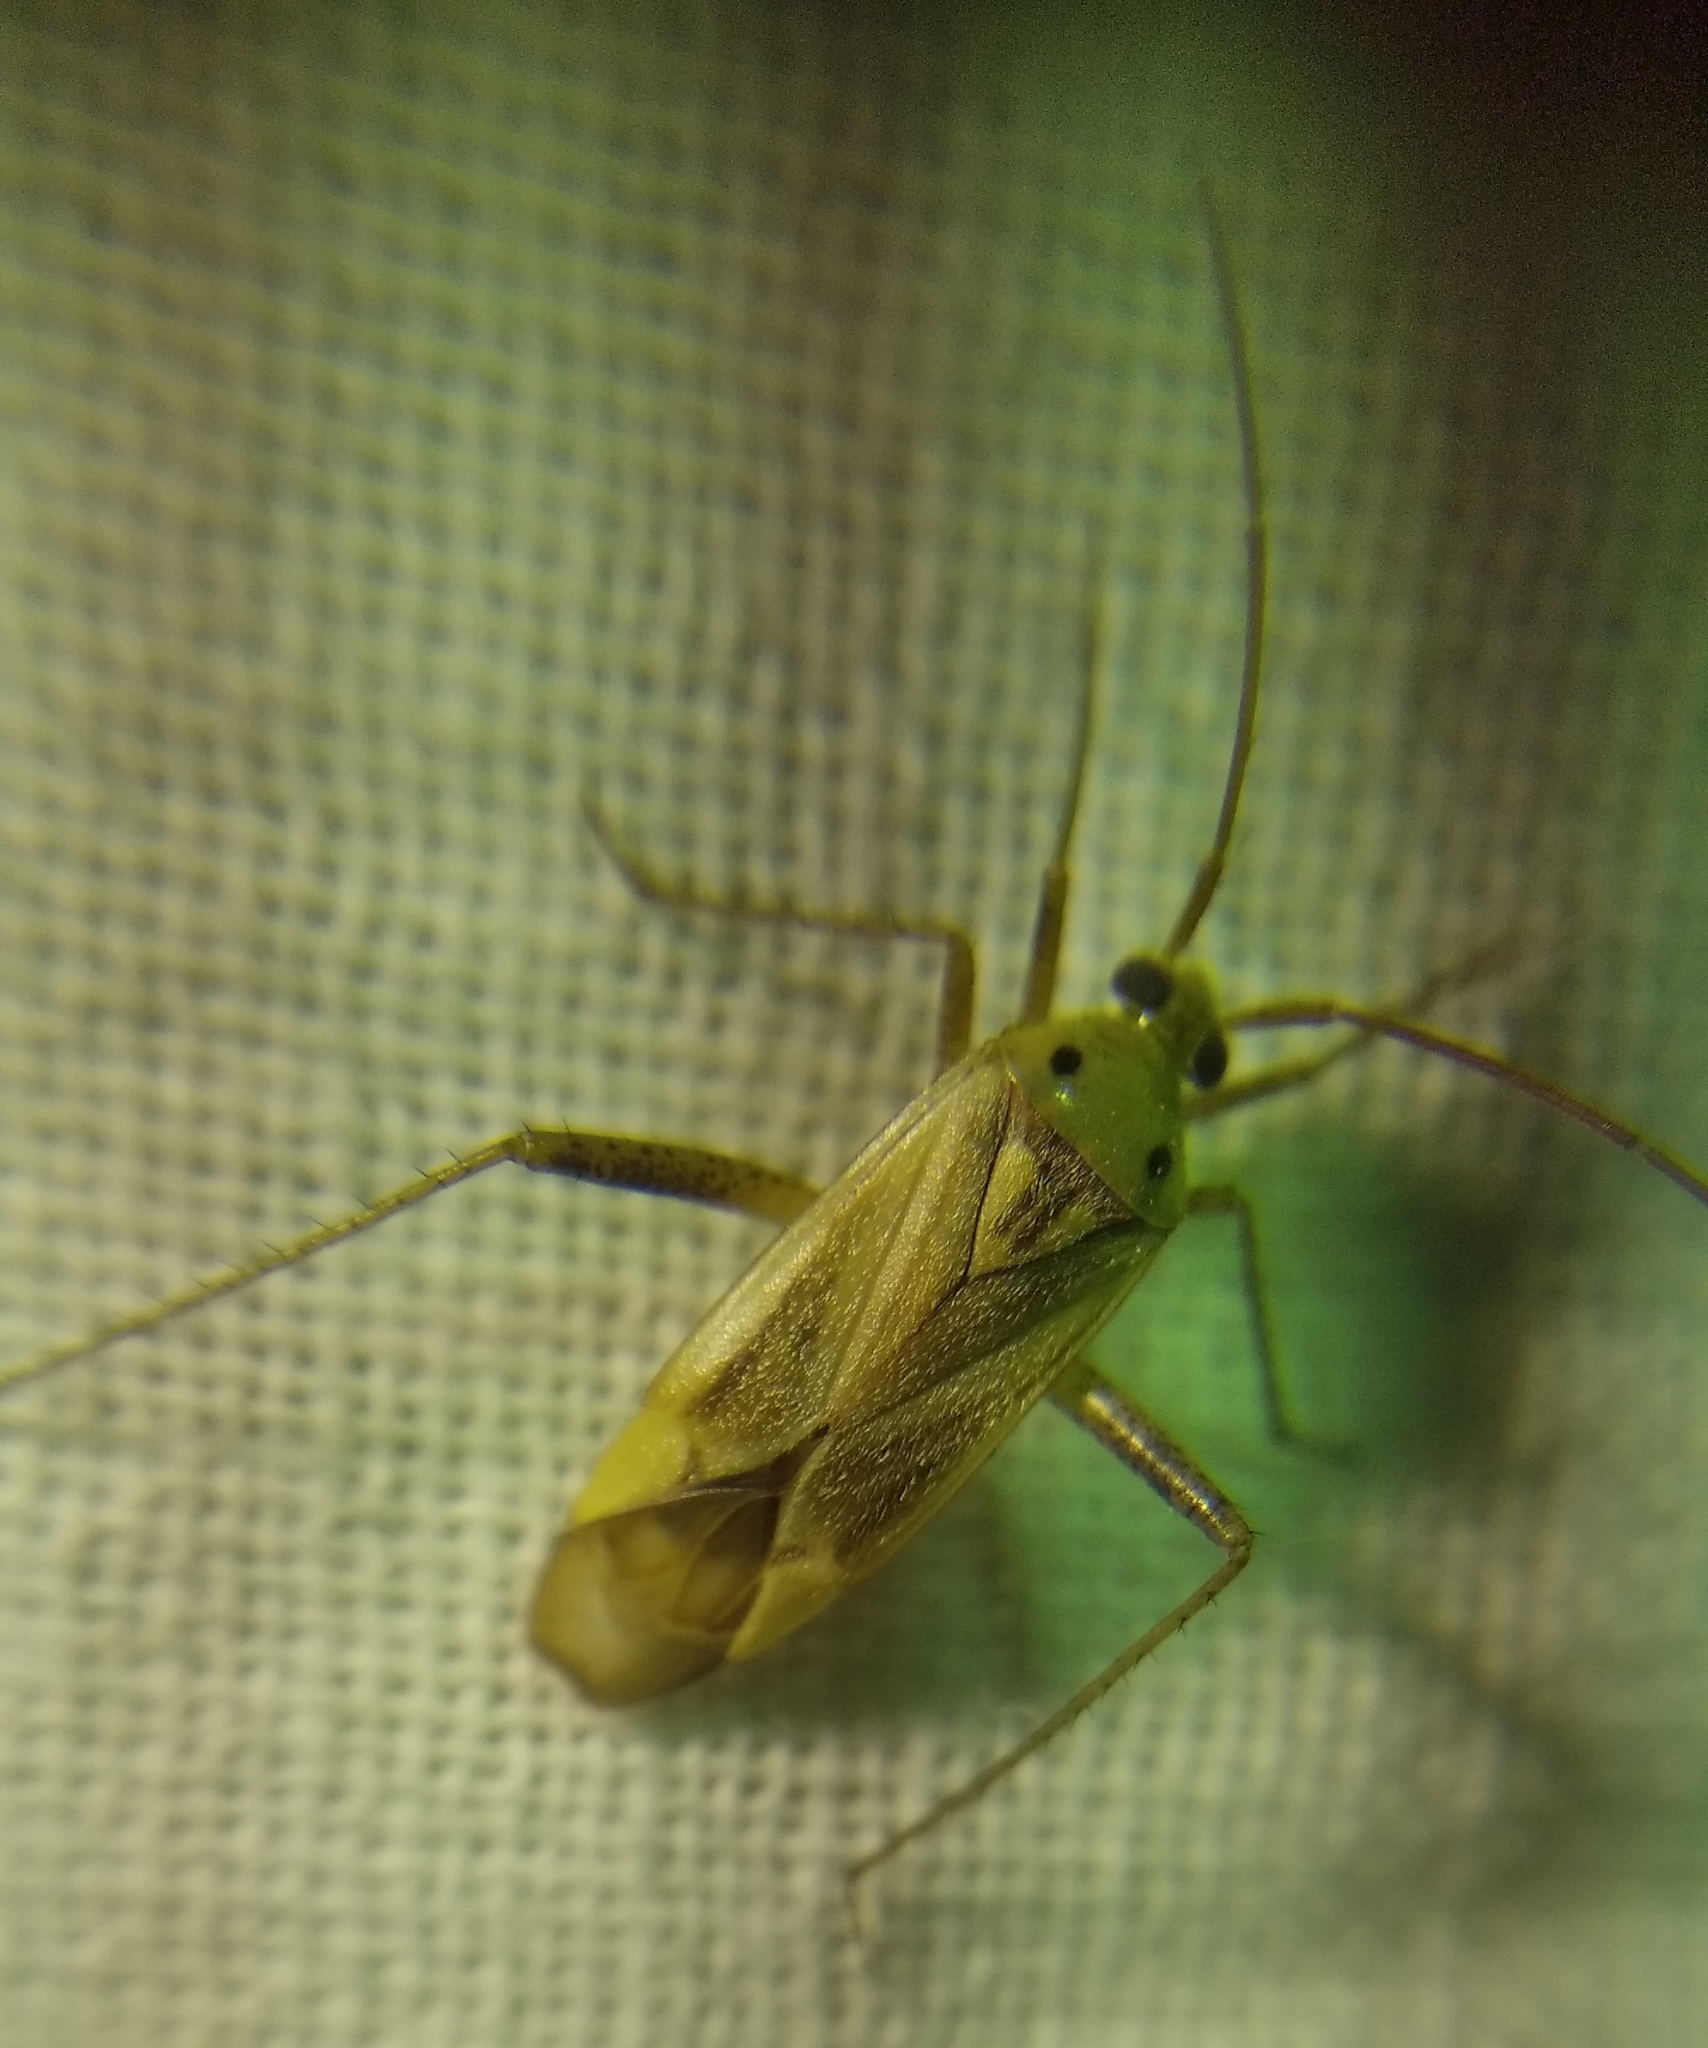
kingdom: Animalia
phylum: Arthropoda
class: Insecta
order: Hemiptera
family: Miridae
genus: Adelphocoris
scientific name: Adelphocoris lineolatus
